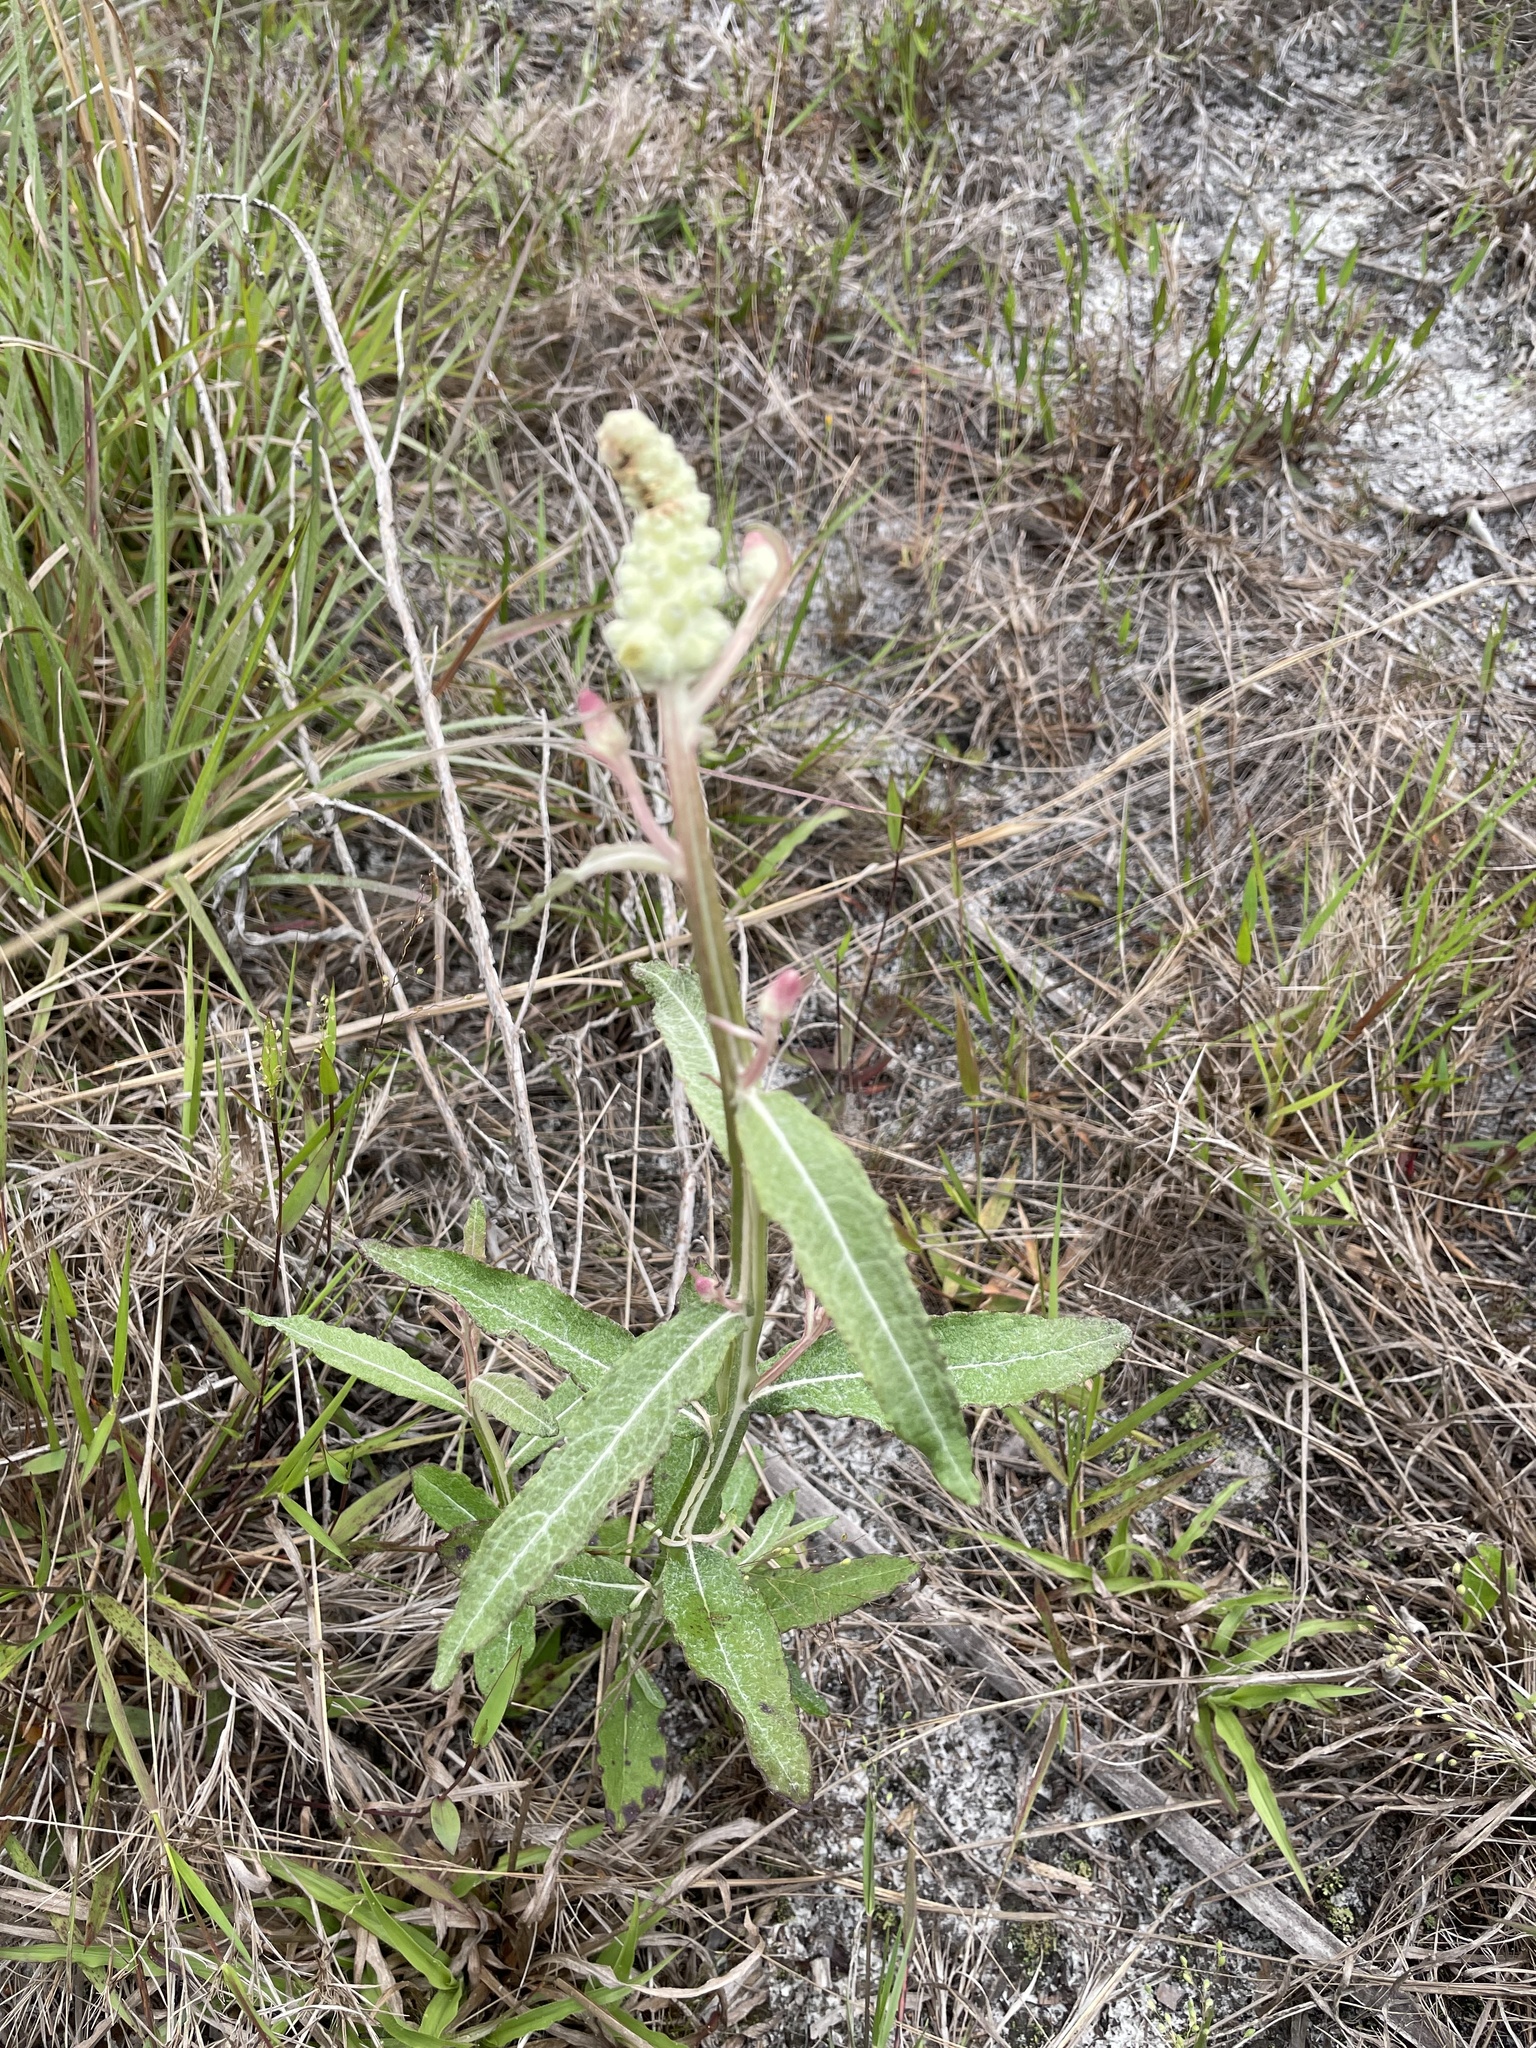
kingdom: Plantae
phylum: Tracheophyta
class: Magnoliopsida
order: Asterales
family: Asteraceae
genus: Pterocaulon
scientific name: Pterocaulon pycnostachyum
